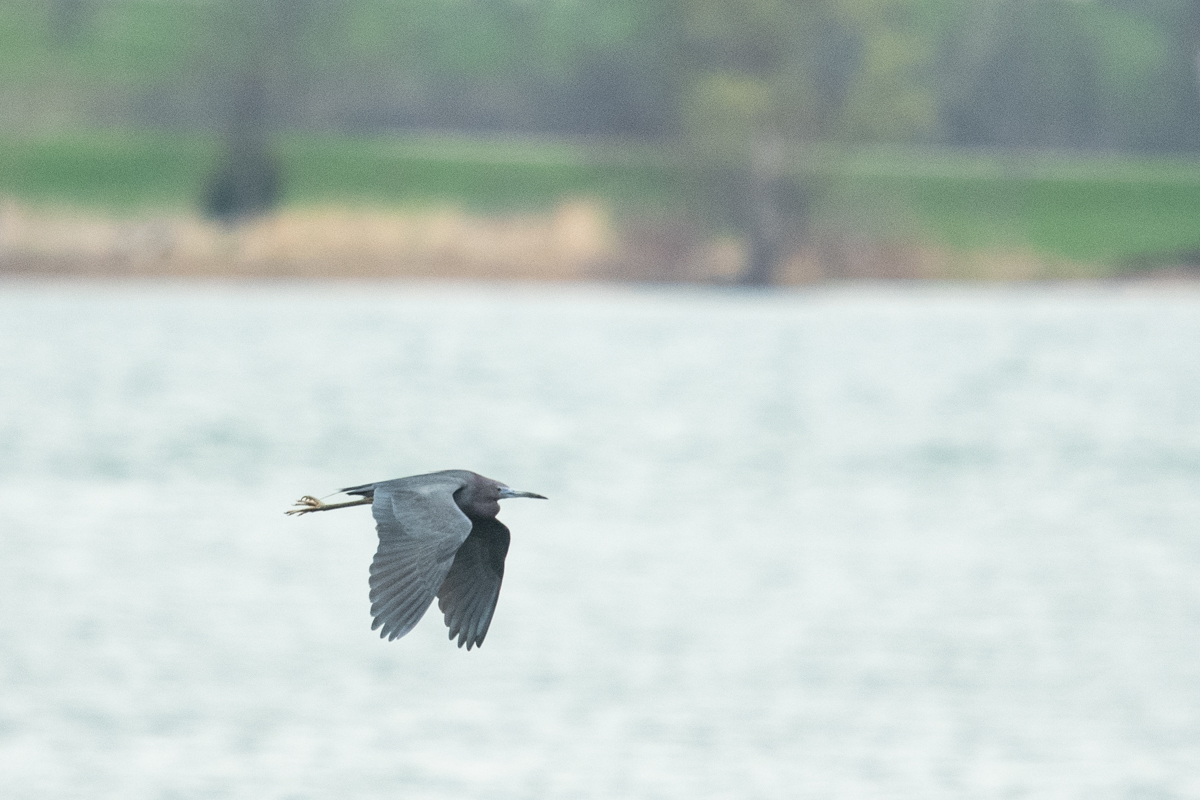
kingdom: Animalia
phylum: Chordata
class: Aves
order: Pelecaniformes
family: Ardeidae
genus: Egretta
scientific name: Egretta caerulea
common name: Little blue heron
